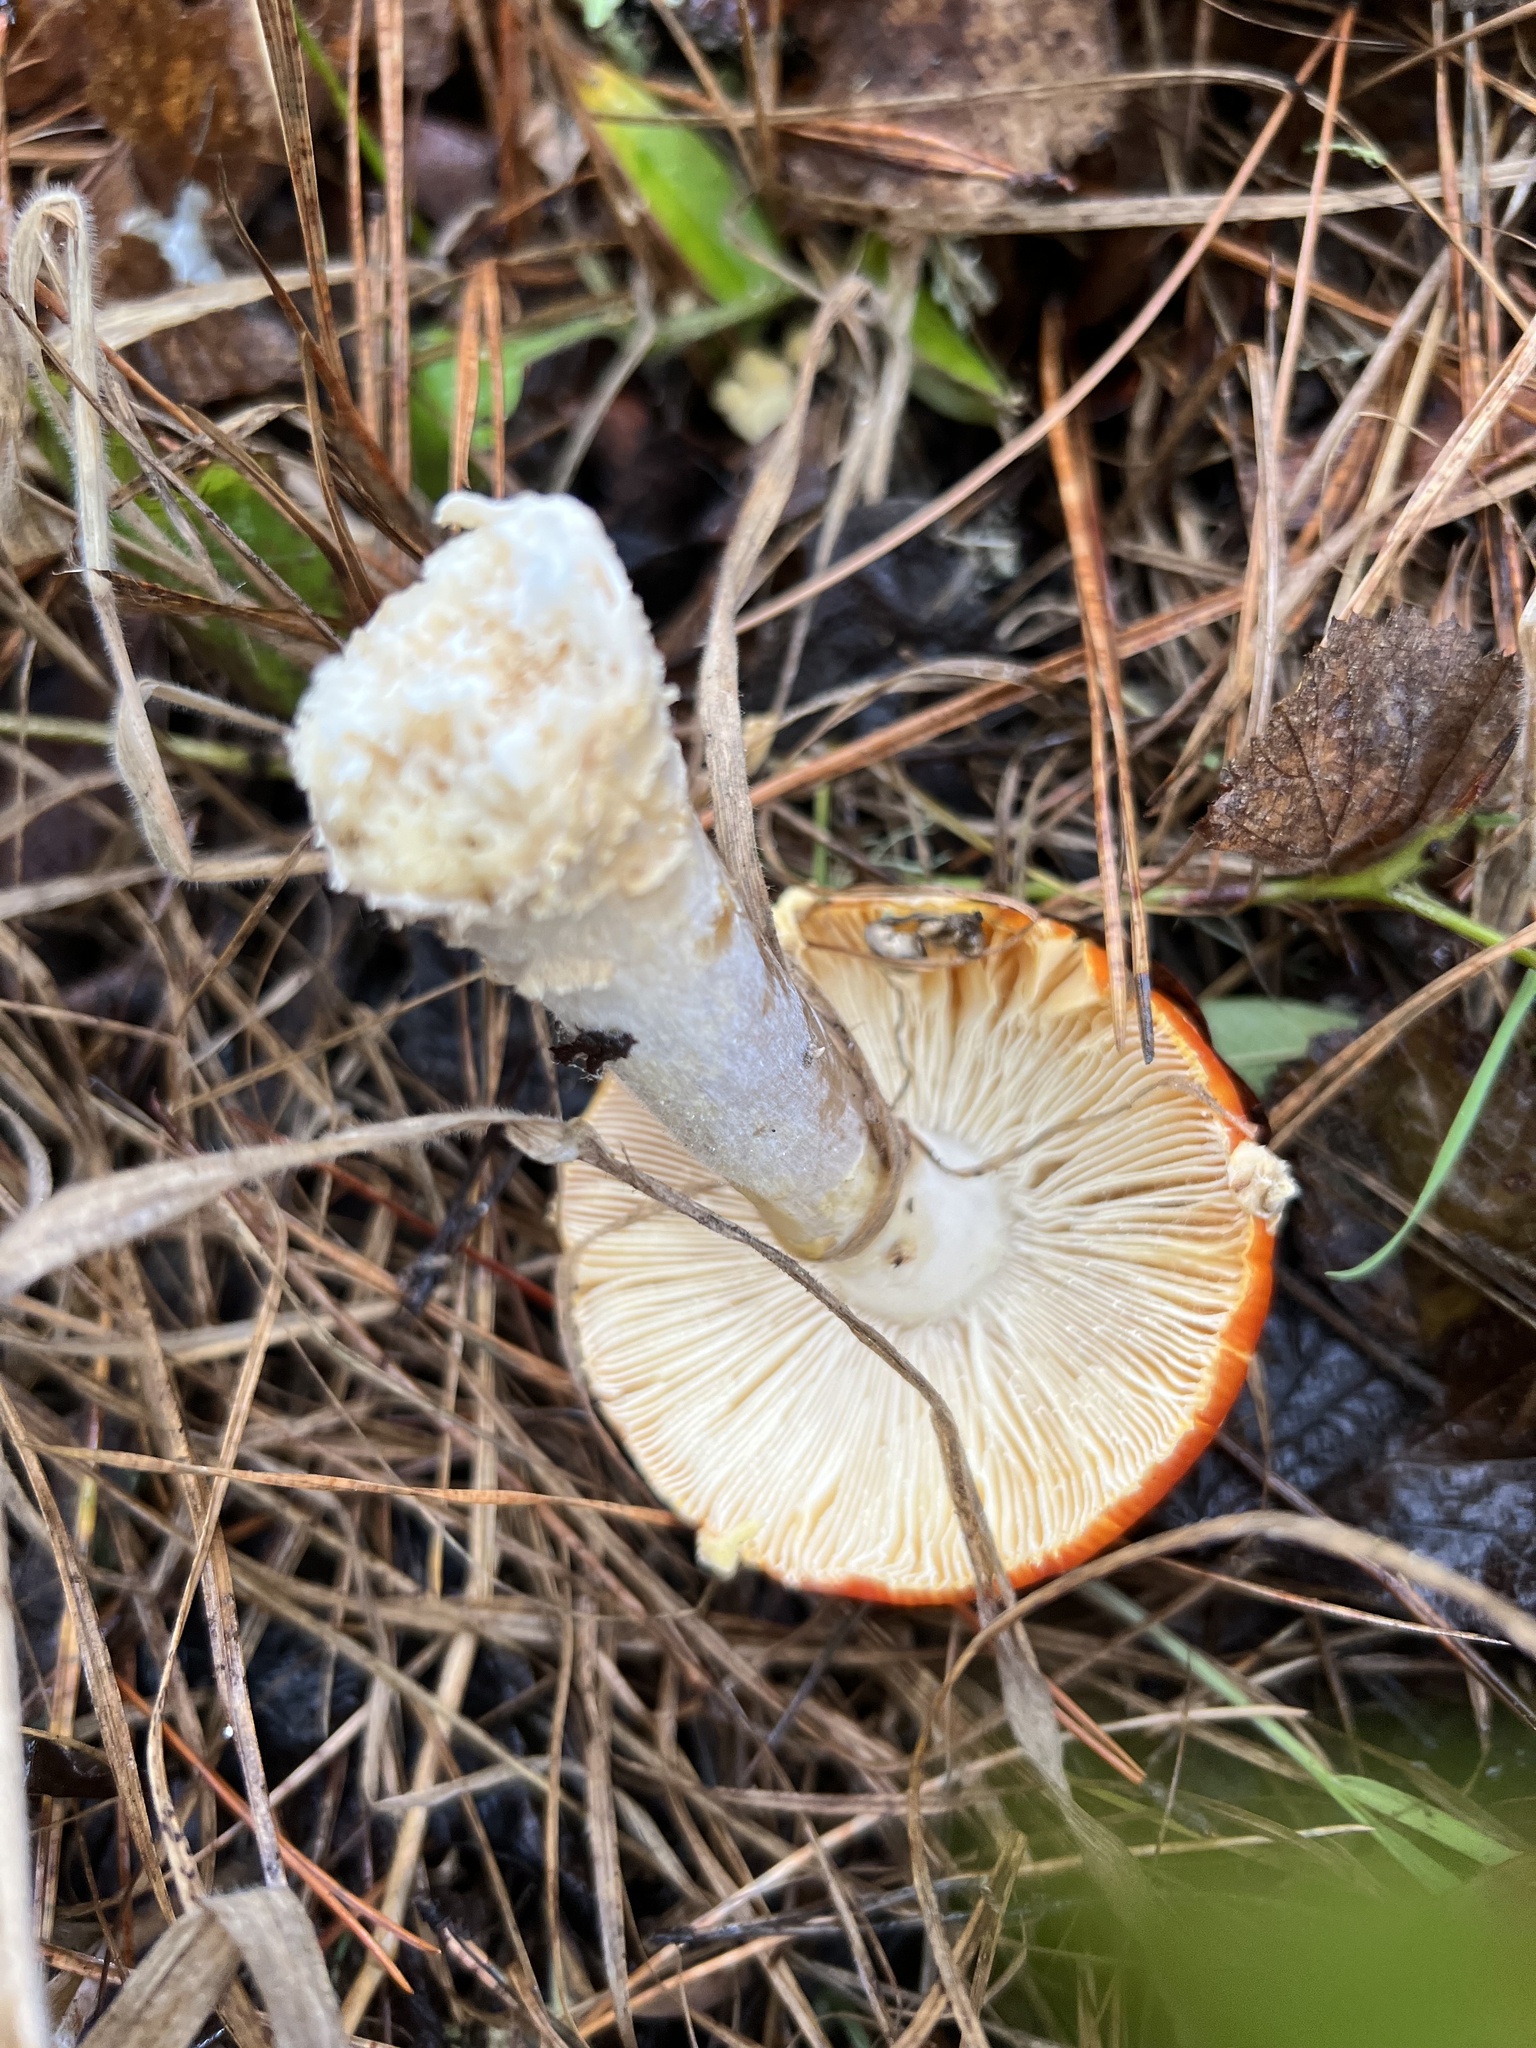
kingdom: Fungi
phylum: Basidiomycota
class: Agaricomycetes
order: Agaricales
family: Amanitaceae
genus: Amanita
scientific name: Amanita muscaria
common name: Fly agaric
